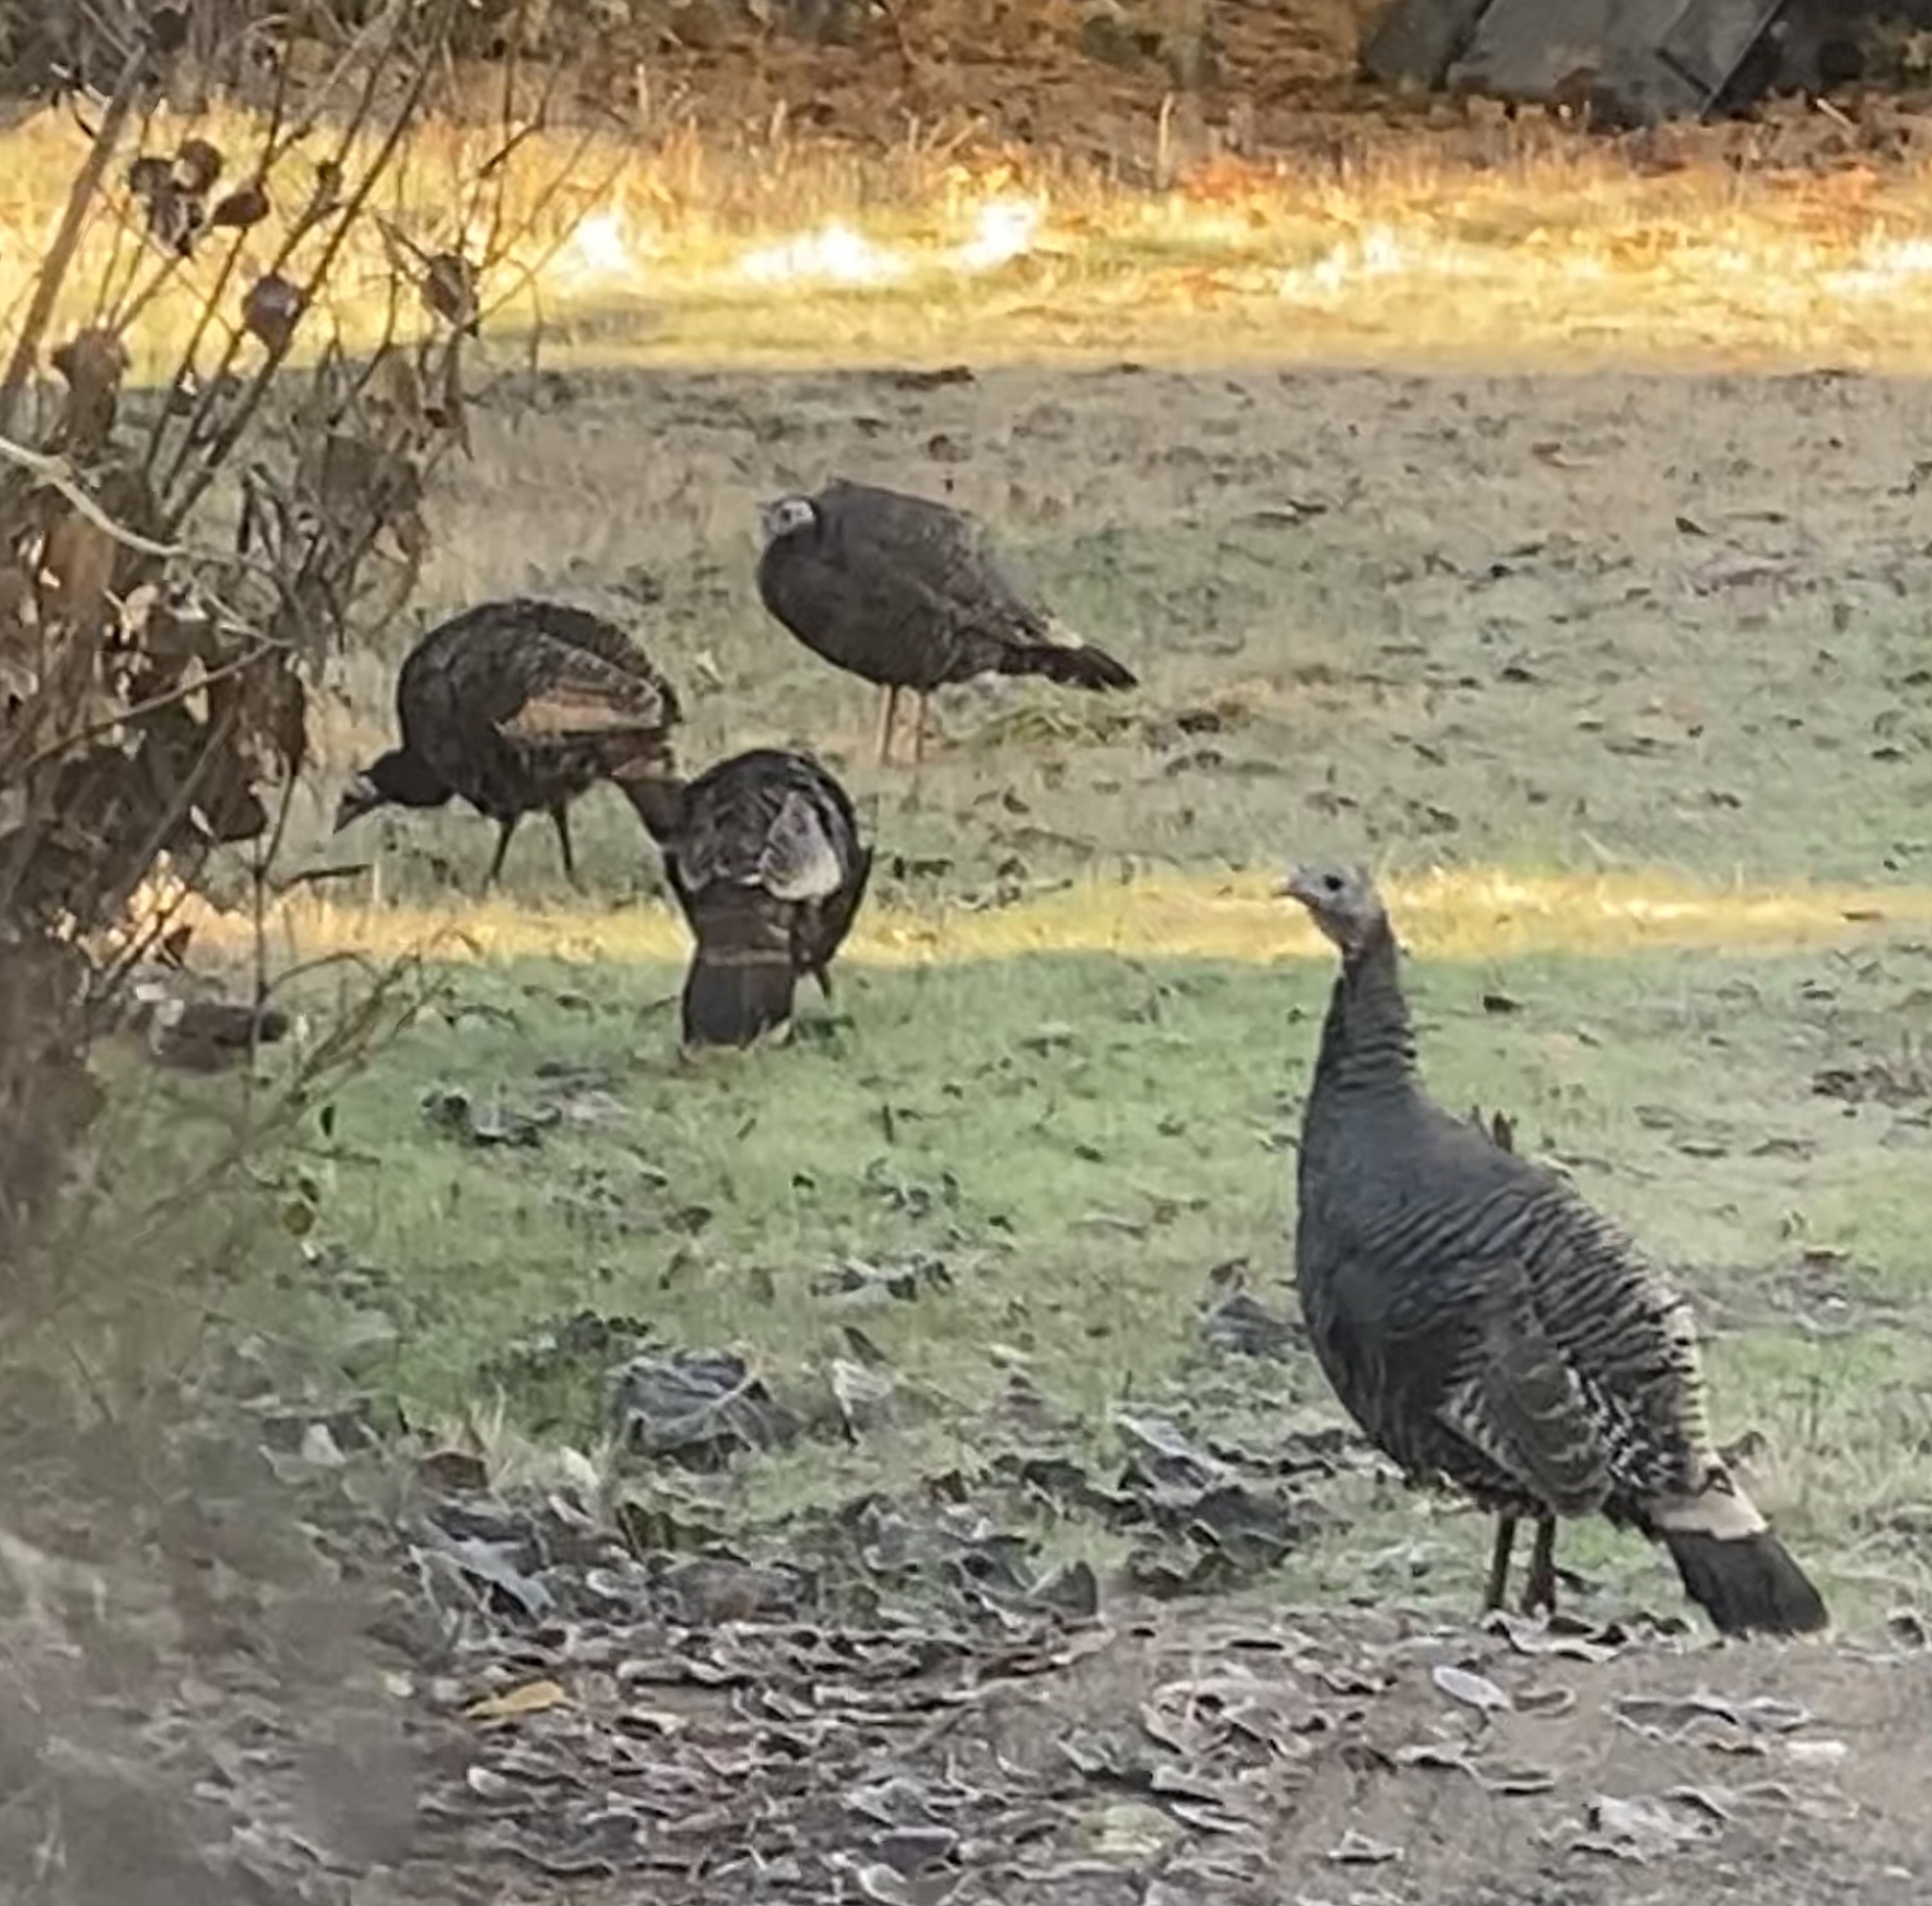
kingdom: Animalia
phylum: Chordata
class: Aves
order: Galliformes
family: Phasianidae
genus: Meleagris
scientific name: Meleagris gallopavo
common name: Wild turkey
